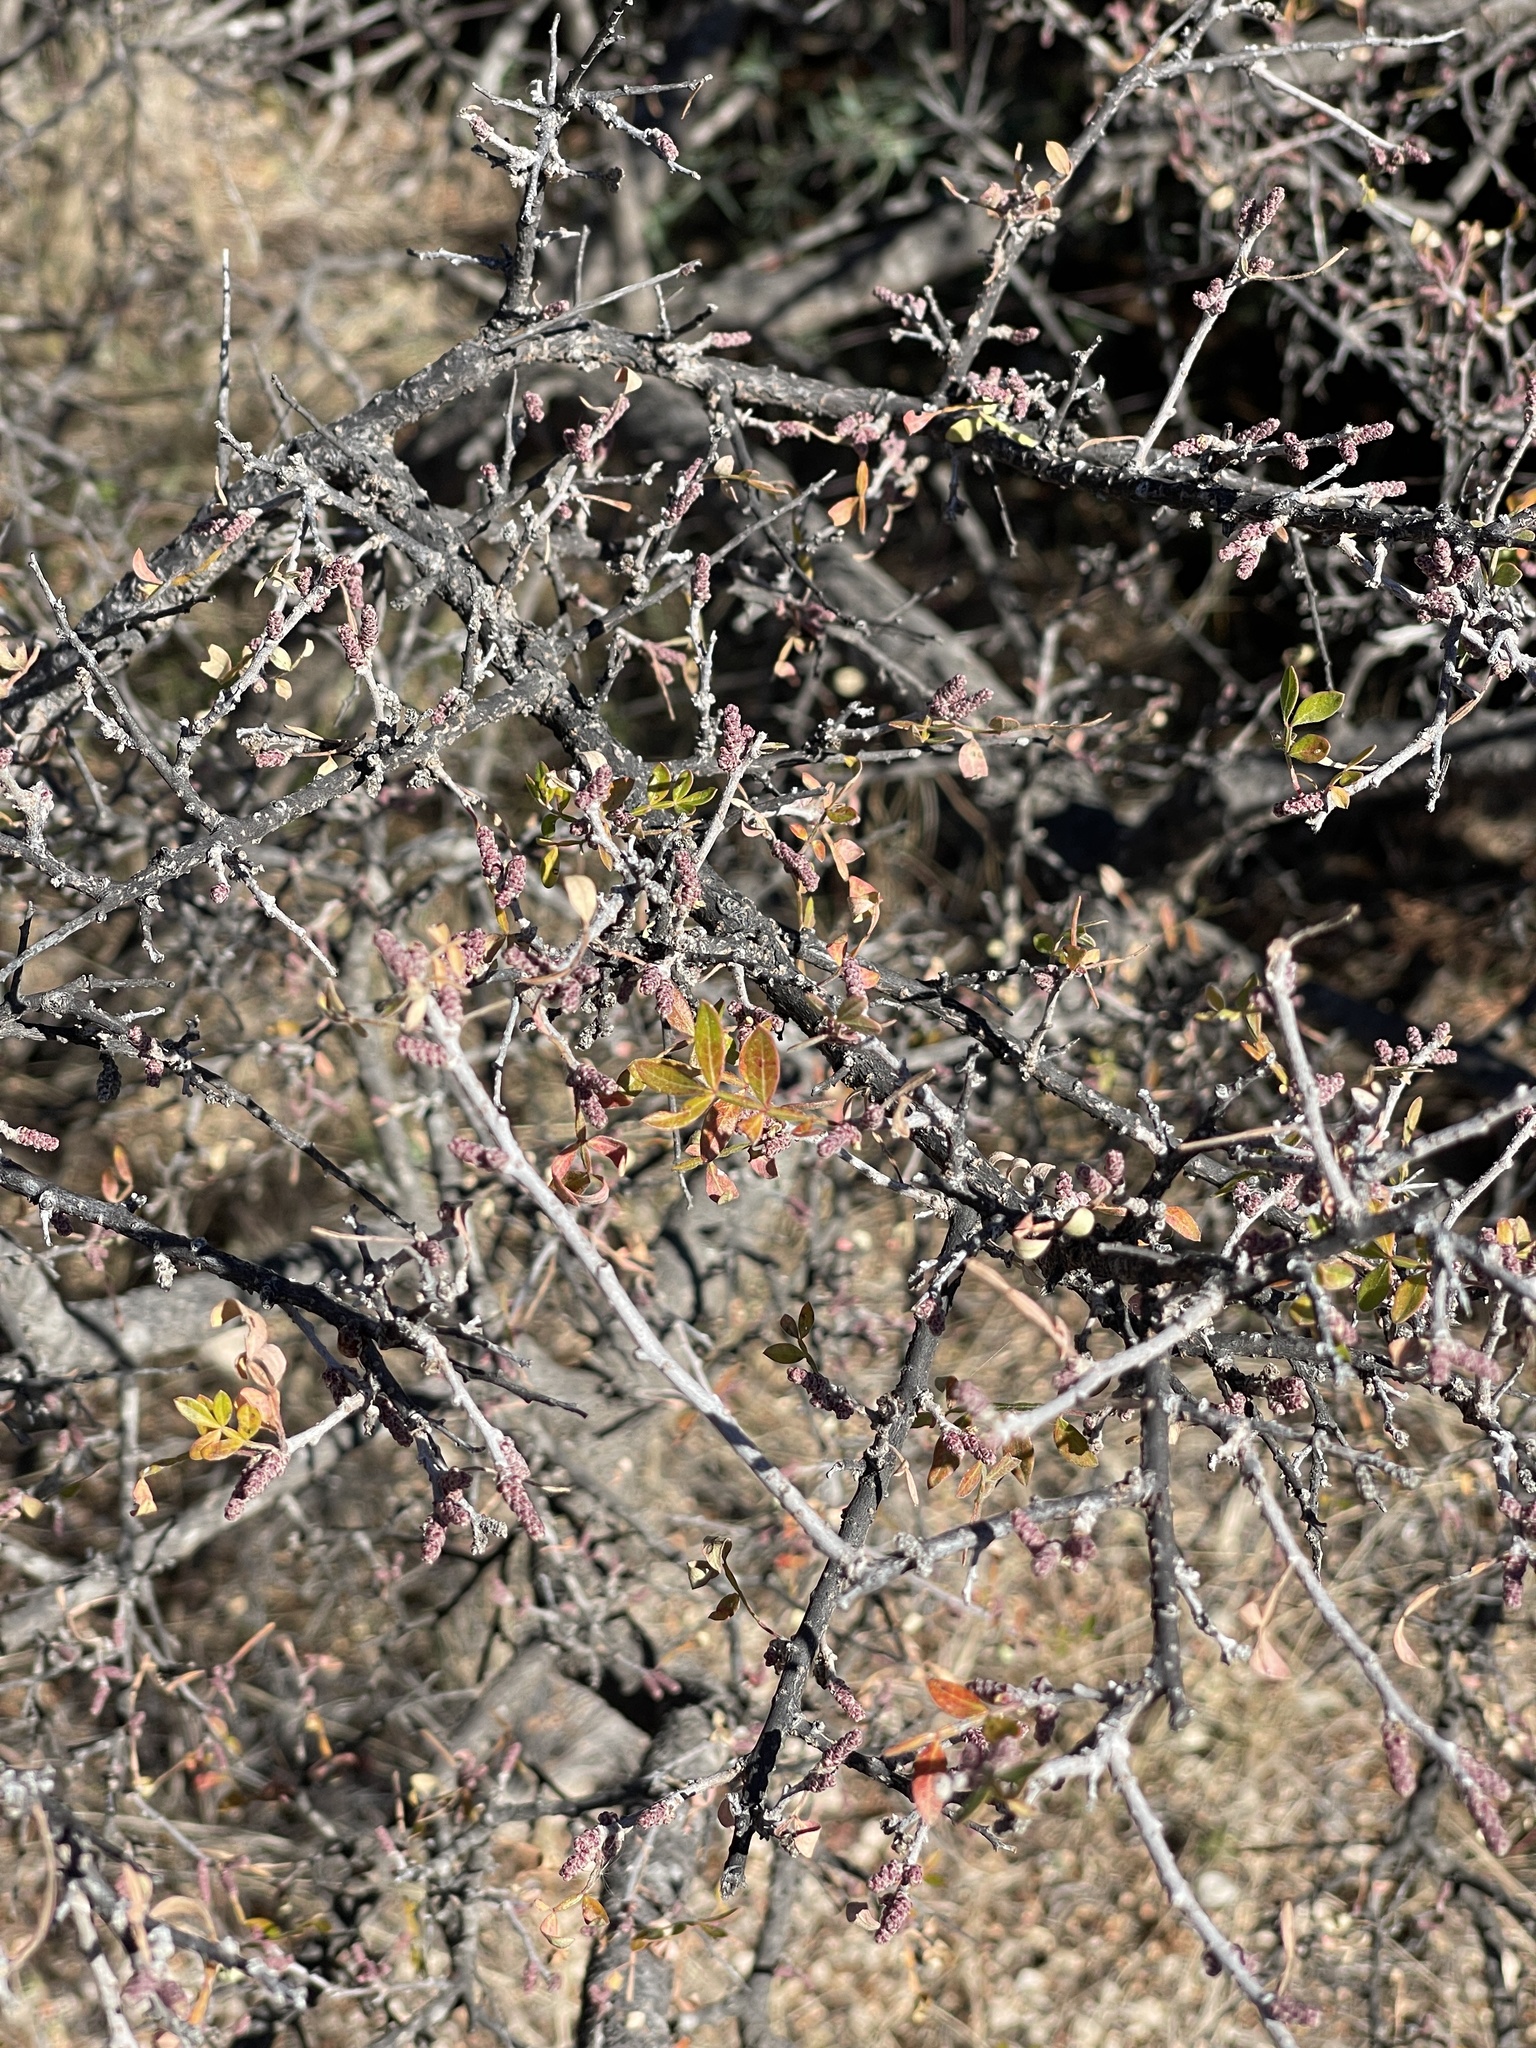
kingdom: Plantae
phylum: Tracheophyta
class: Magnoliopsida
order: Sapindales
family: Anacardiaceae
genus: Rhus
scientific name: Rhus microphylla
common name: Desert sumac
